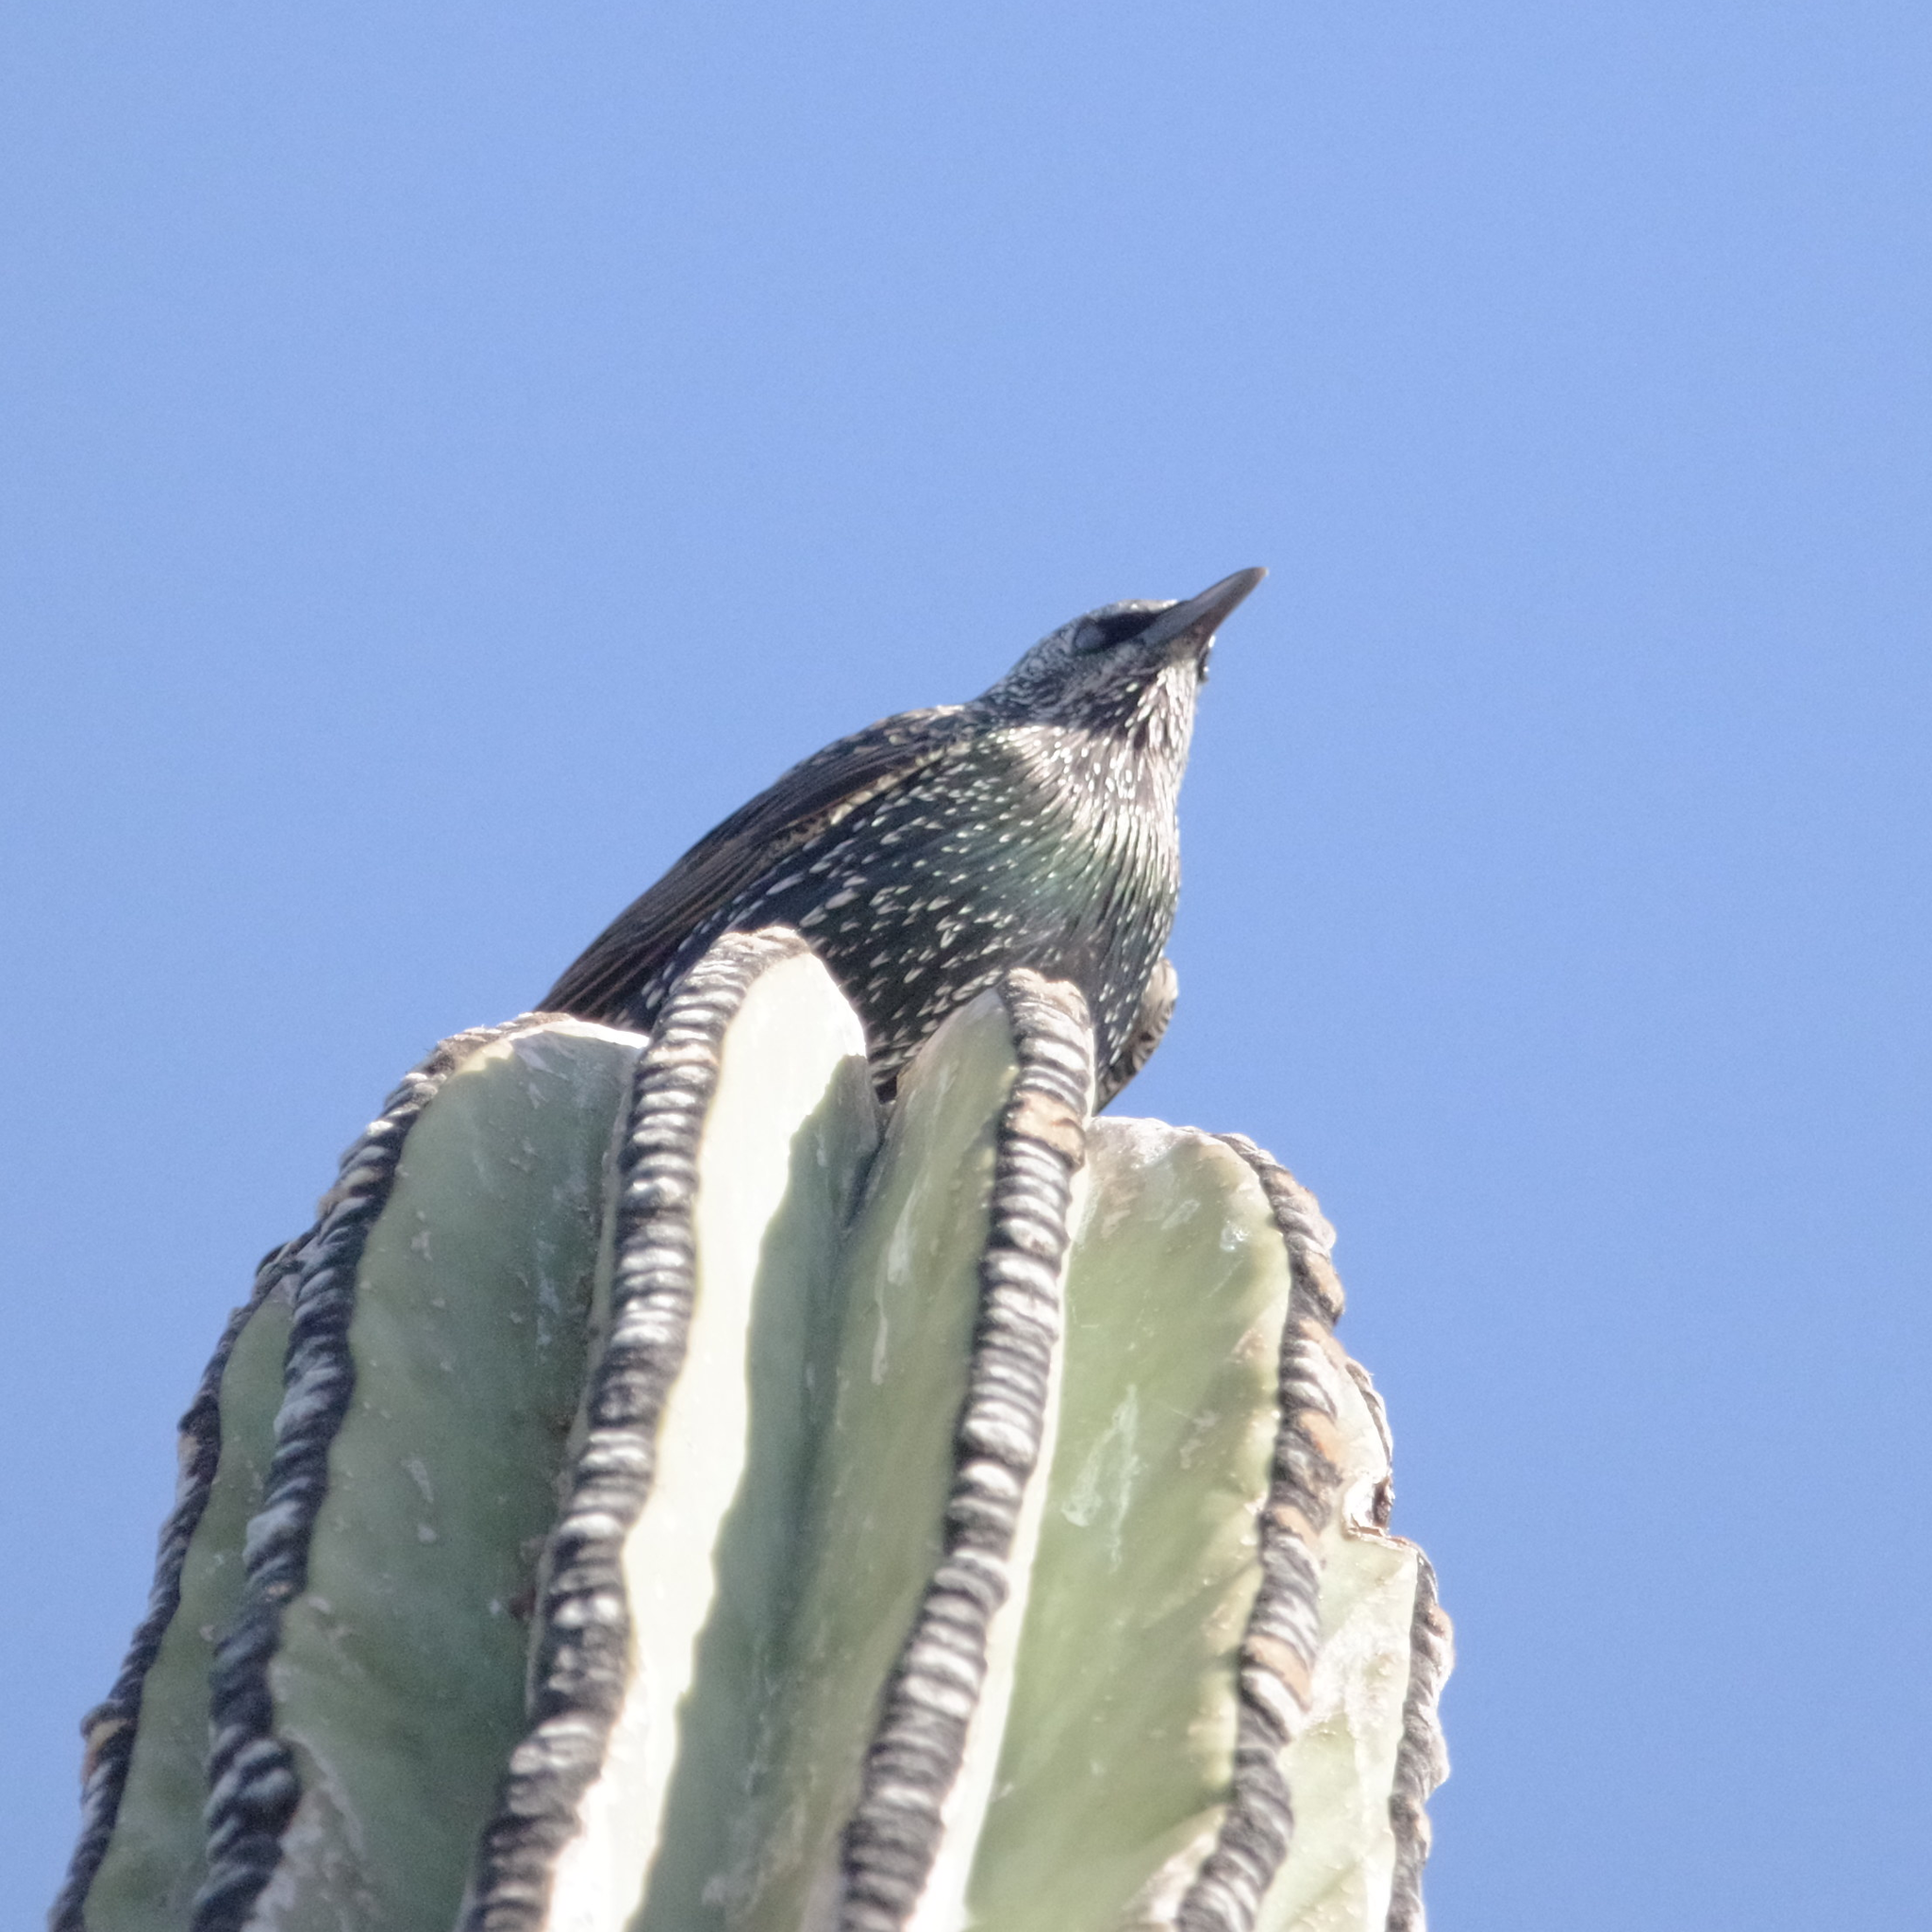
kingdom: Animalia
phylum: Chordata
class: Aves
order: Passeriformes
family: Sturnidae
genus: Sturnus
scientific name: Sturnus vulgaris
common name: Common starling
